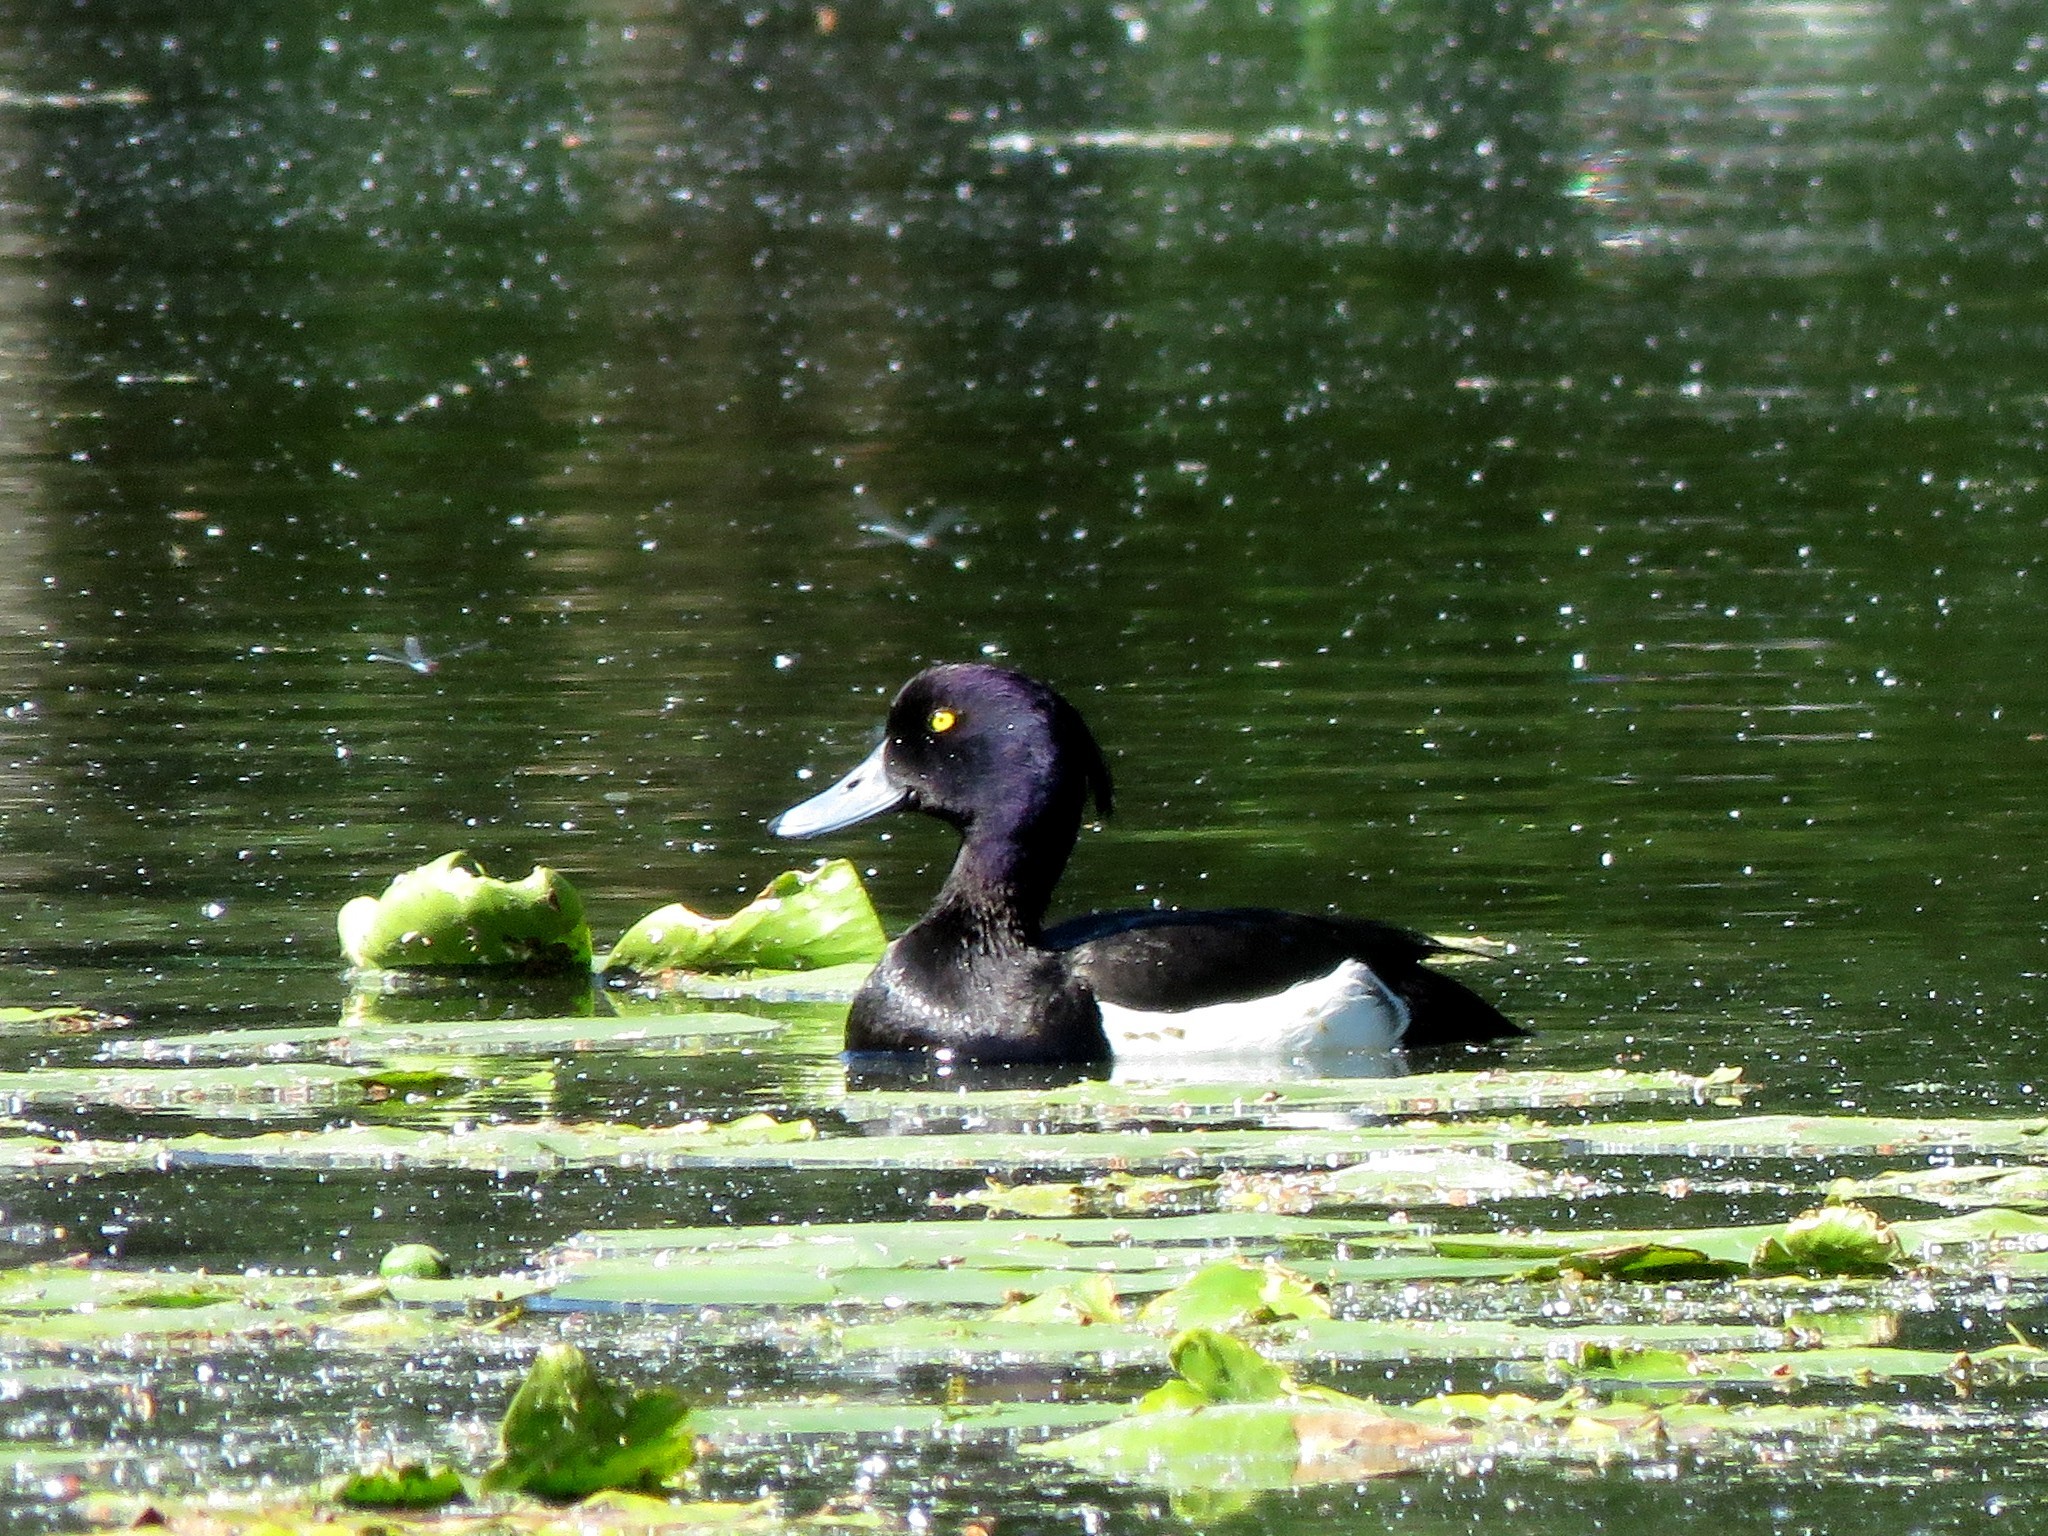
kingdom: Animalia
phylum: Chordata
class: Aves
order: Anseriformes
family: Anatidae
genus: Aythya
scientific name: Aythya fuligula
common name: Tufted duck
